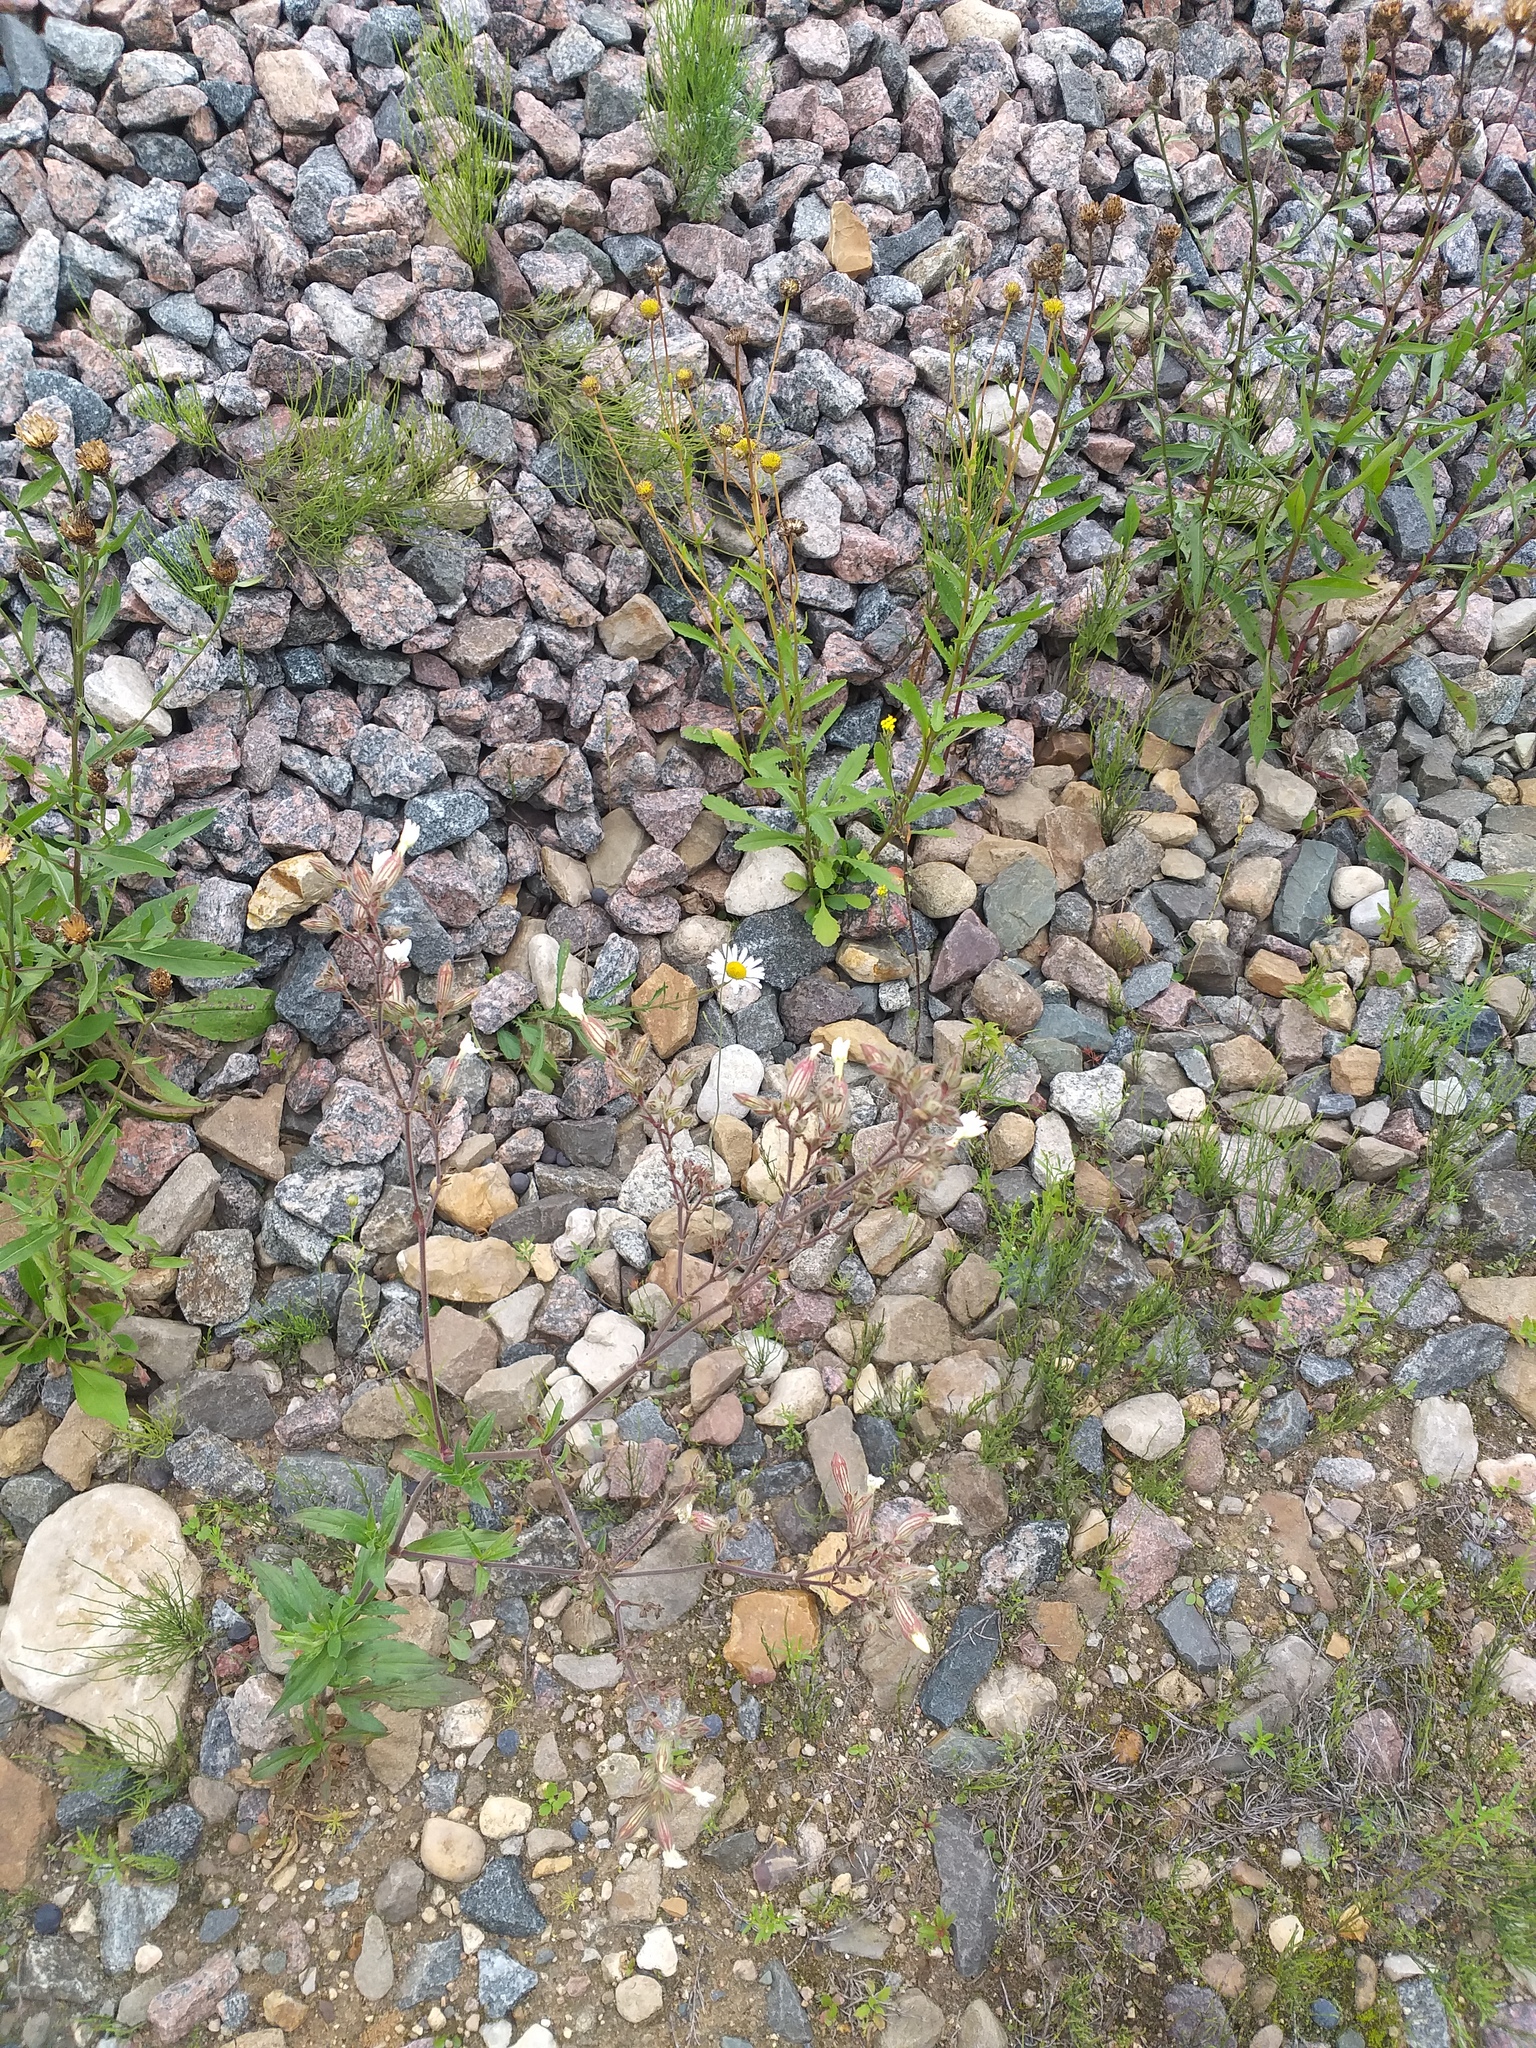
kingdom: Plantae
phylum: Tracheophyta
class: Magnoliopsida
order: Caryophyllales
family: Caryophyllaceae
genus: Silene
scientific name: Silene latifolia
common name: White campion
